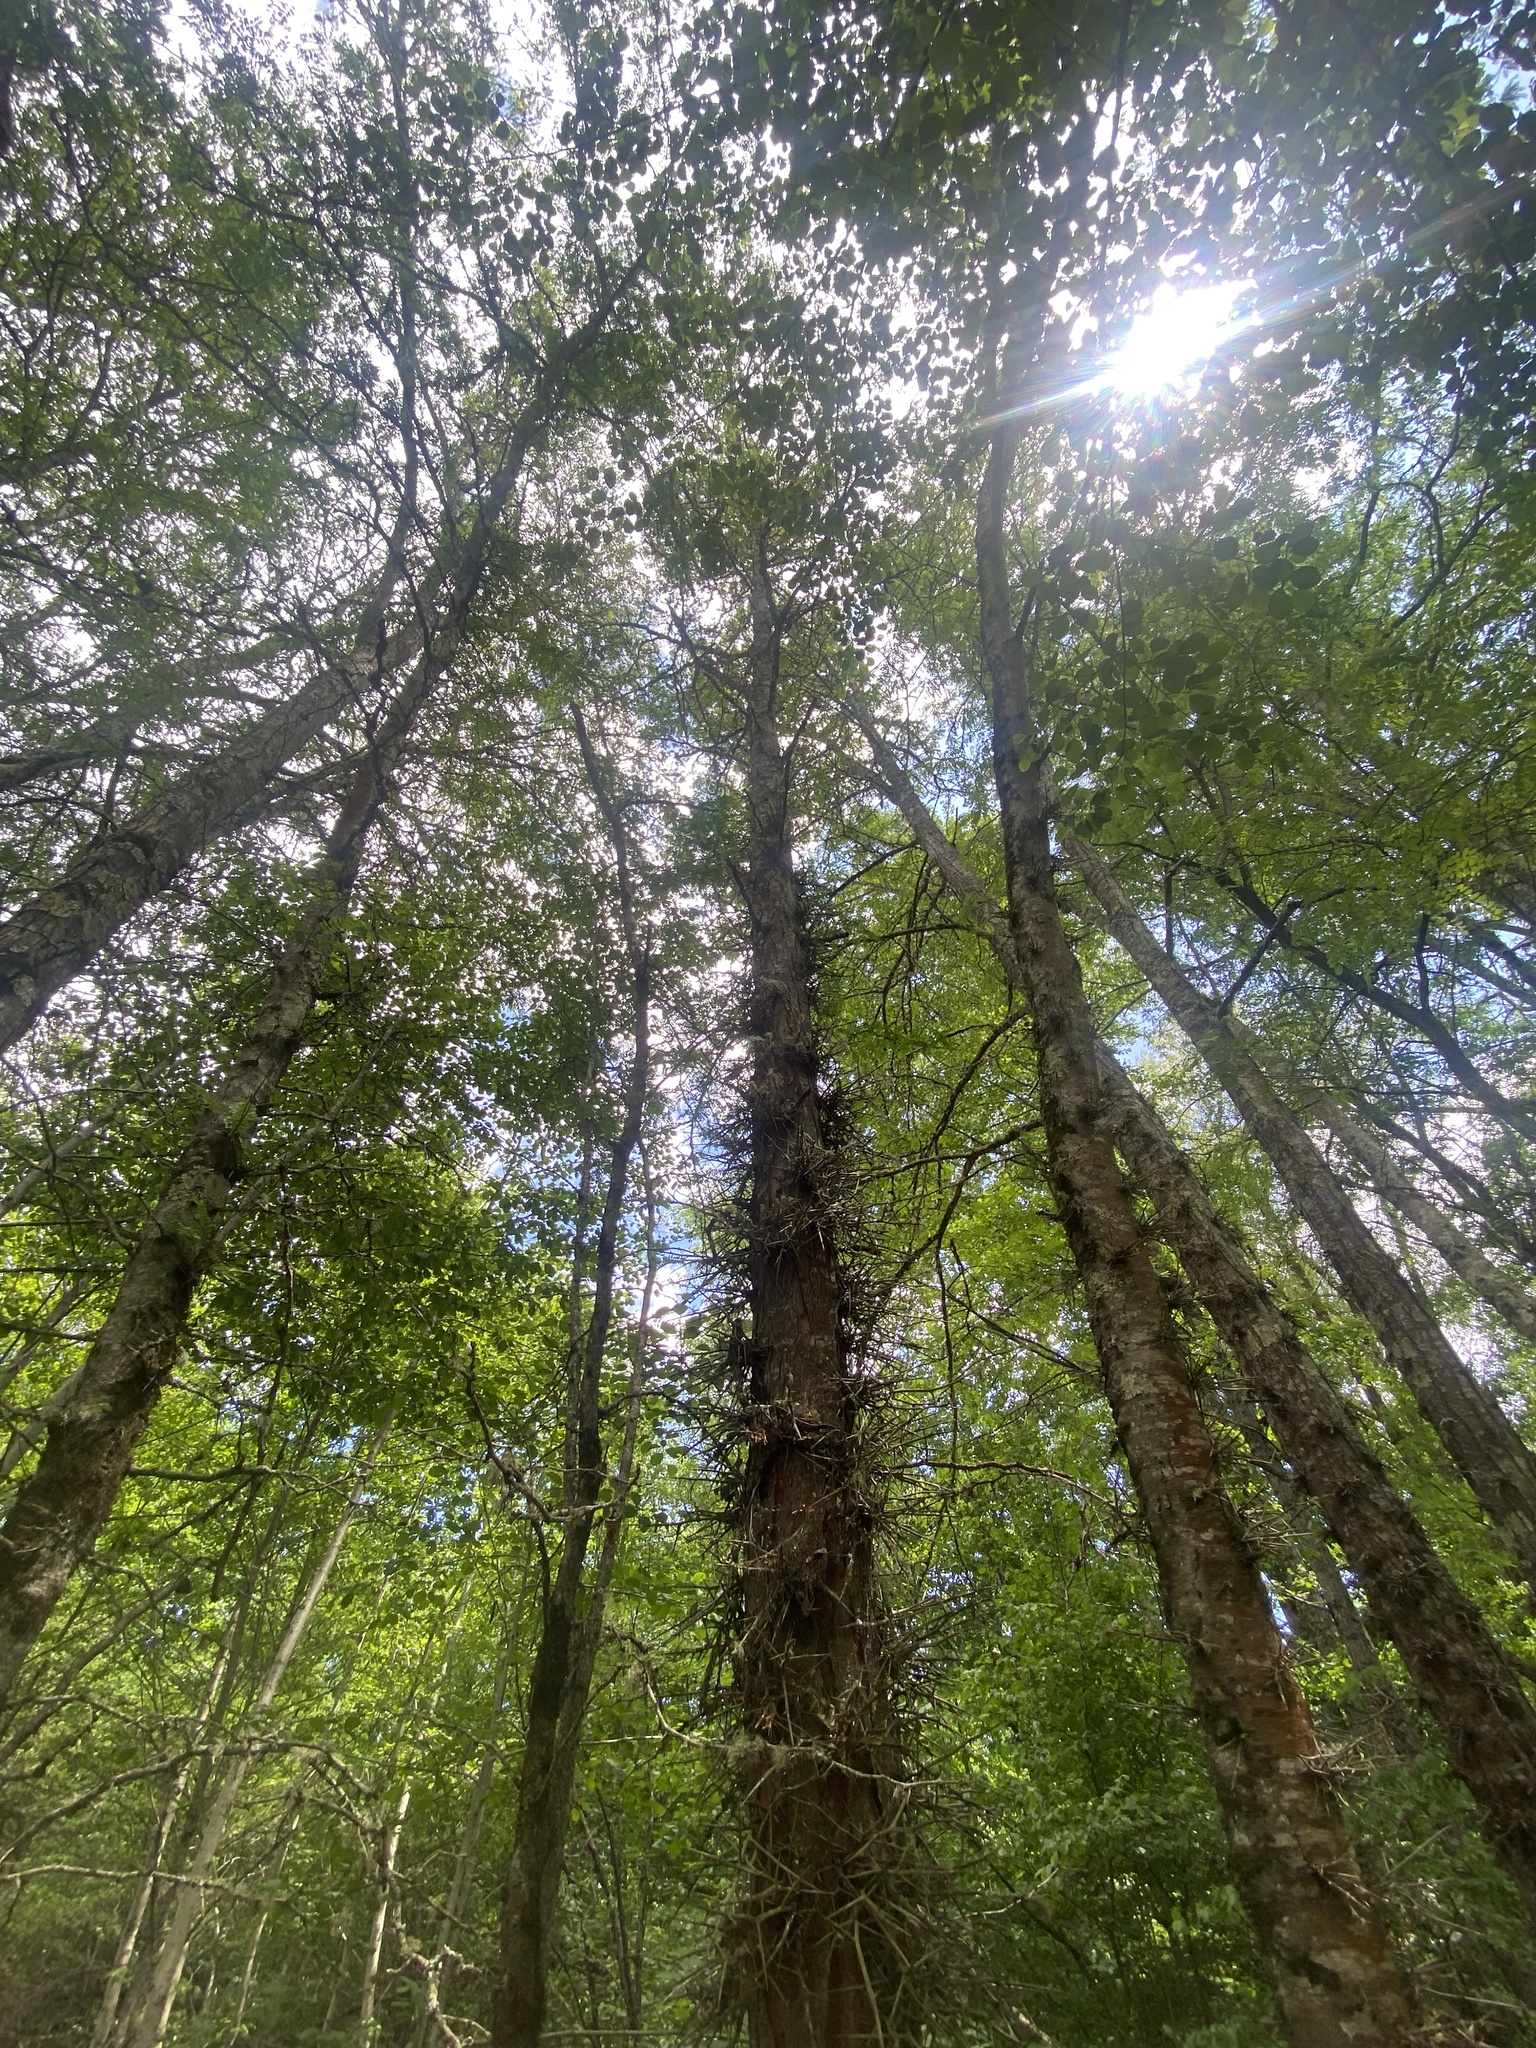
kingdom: Plantae
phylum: Tracheophyta
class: Magnoliopsida
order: Fabales
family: Fabaceae
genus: Gleditsia
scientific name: Gleditsia triacanthos
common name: Common honeylocust
